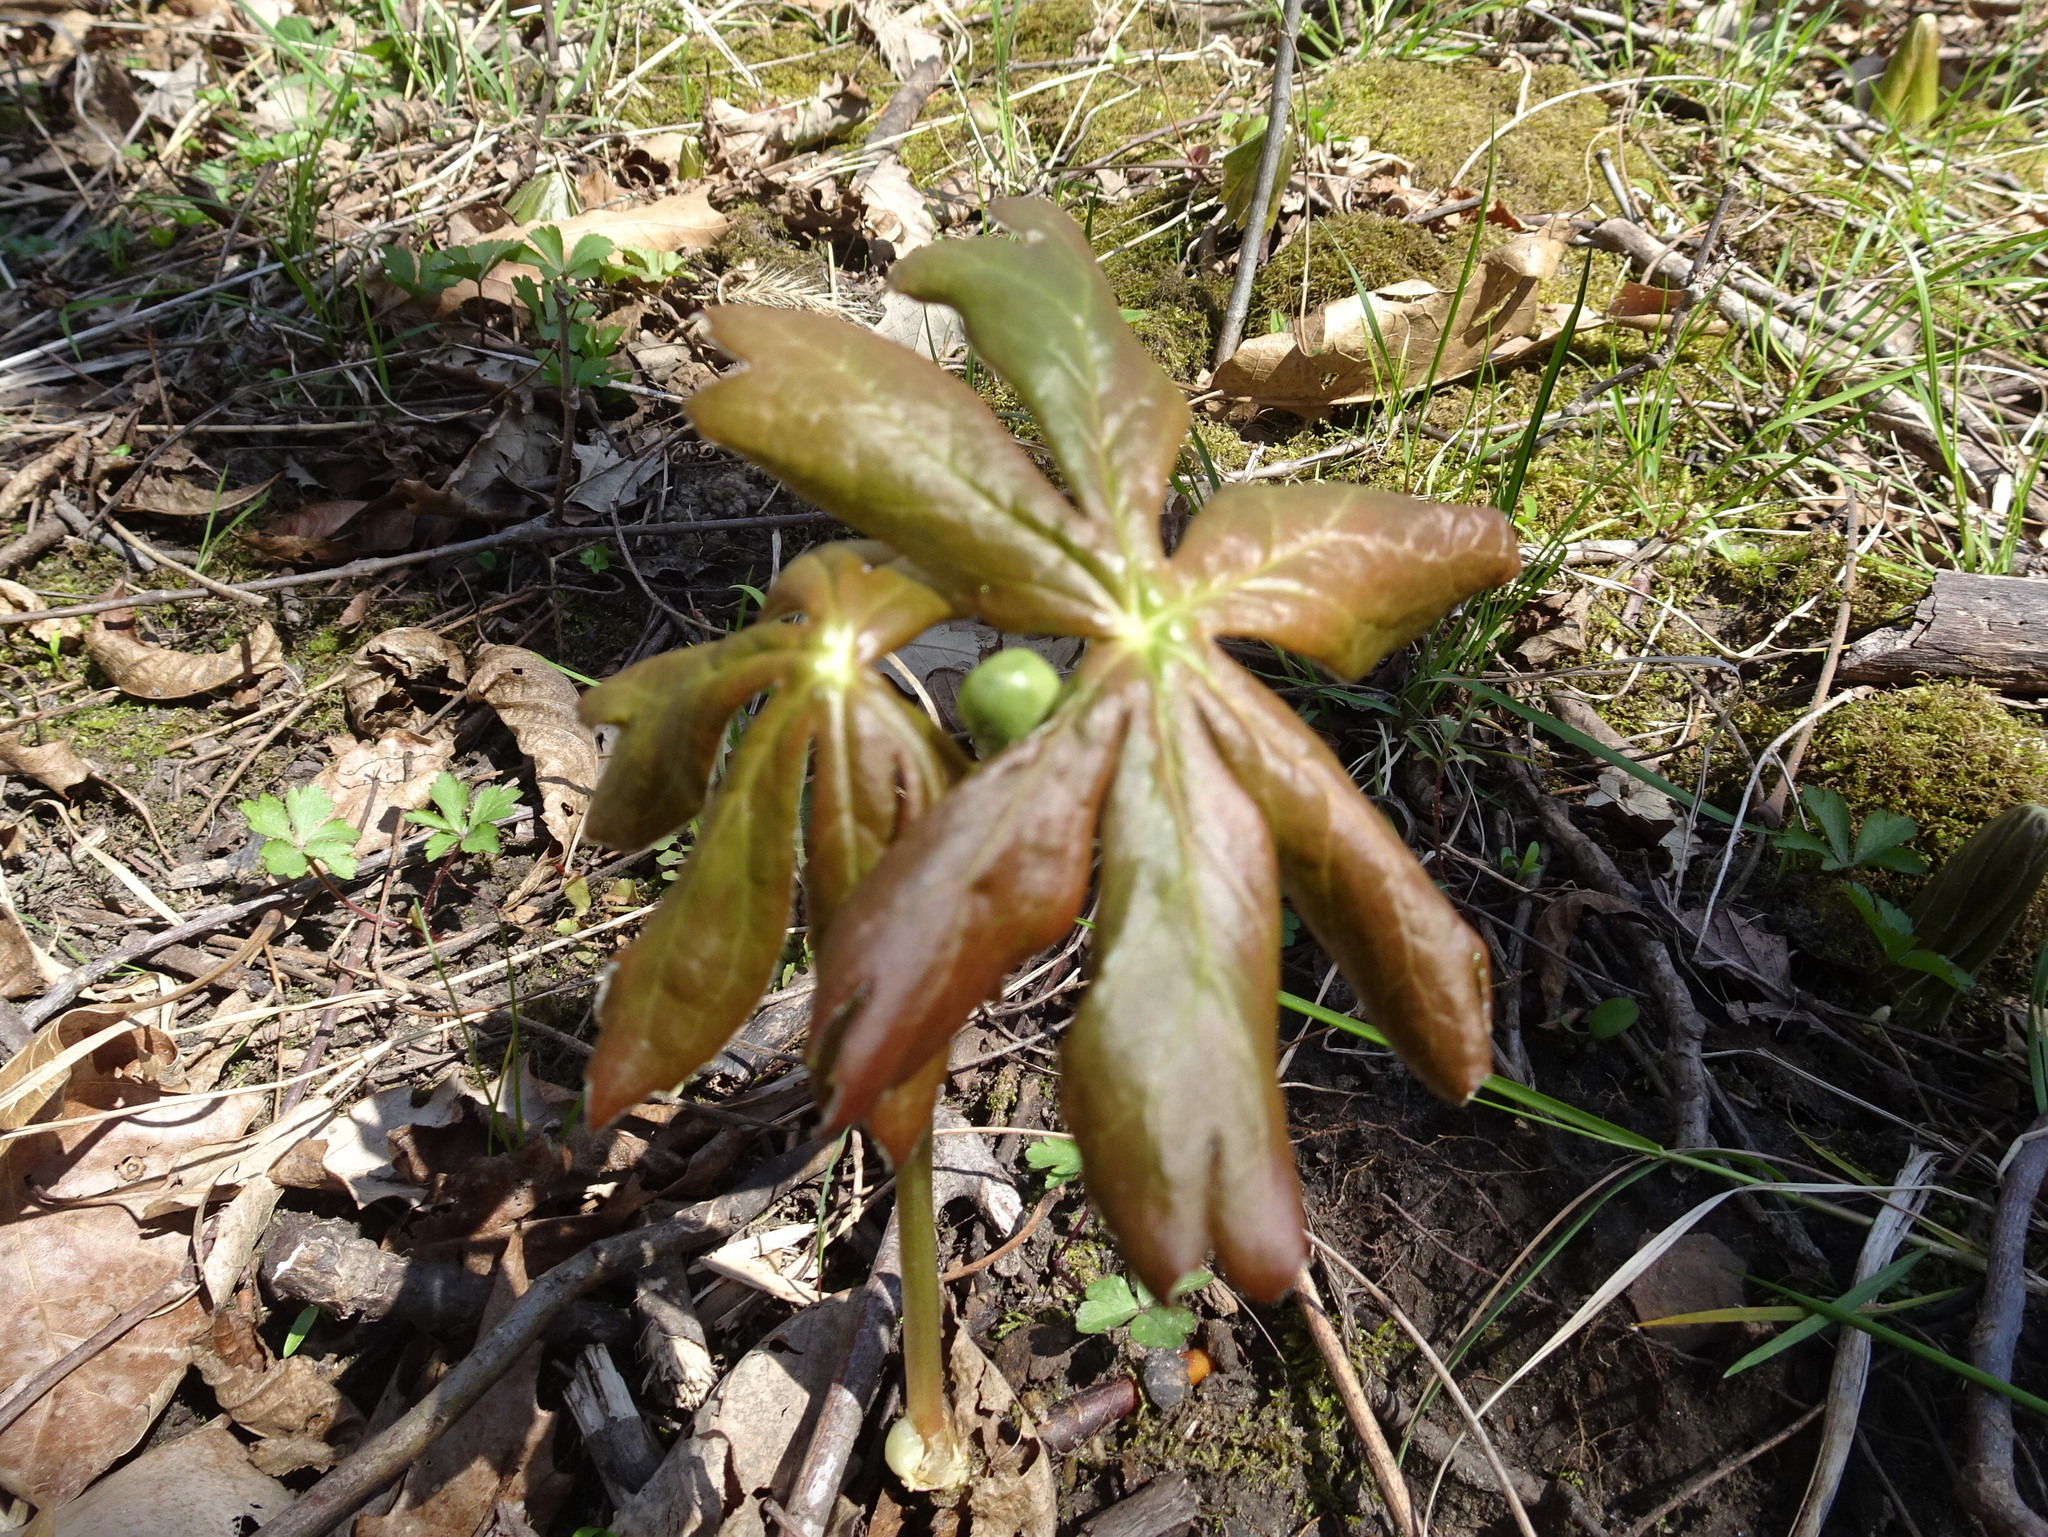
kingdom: Plantae
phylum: Tracheophyta
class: Magnoliopsida
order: Ranunculales
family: Berberidaceae
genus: Podophyllum
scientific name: Podophyllum peltatum
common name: Wild mandrake
